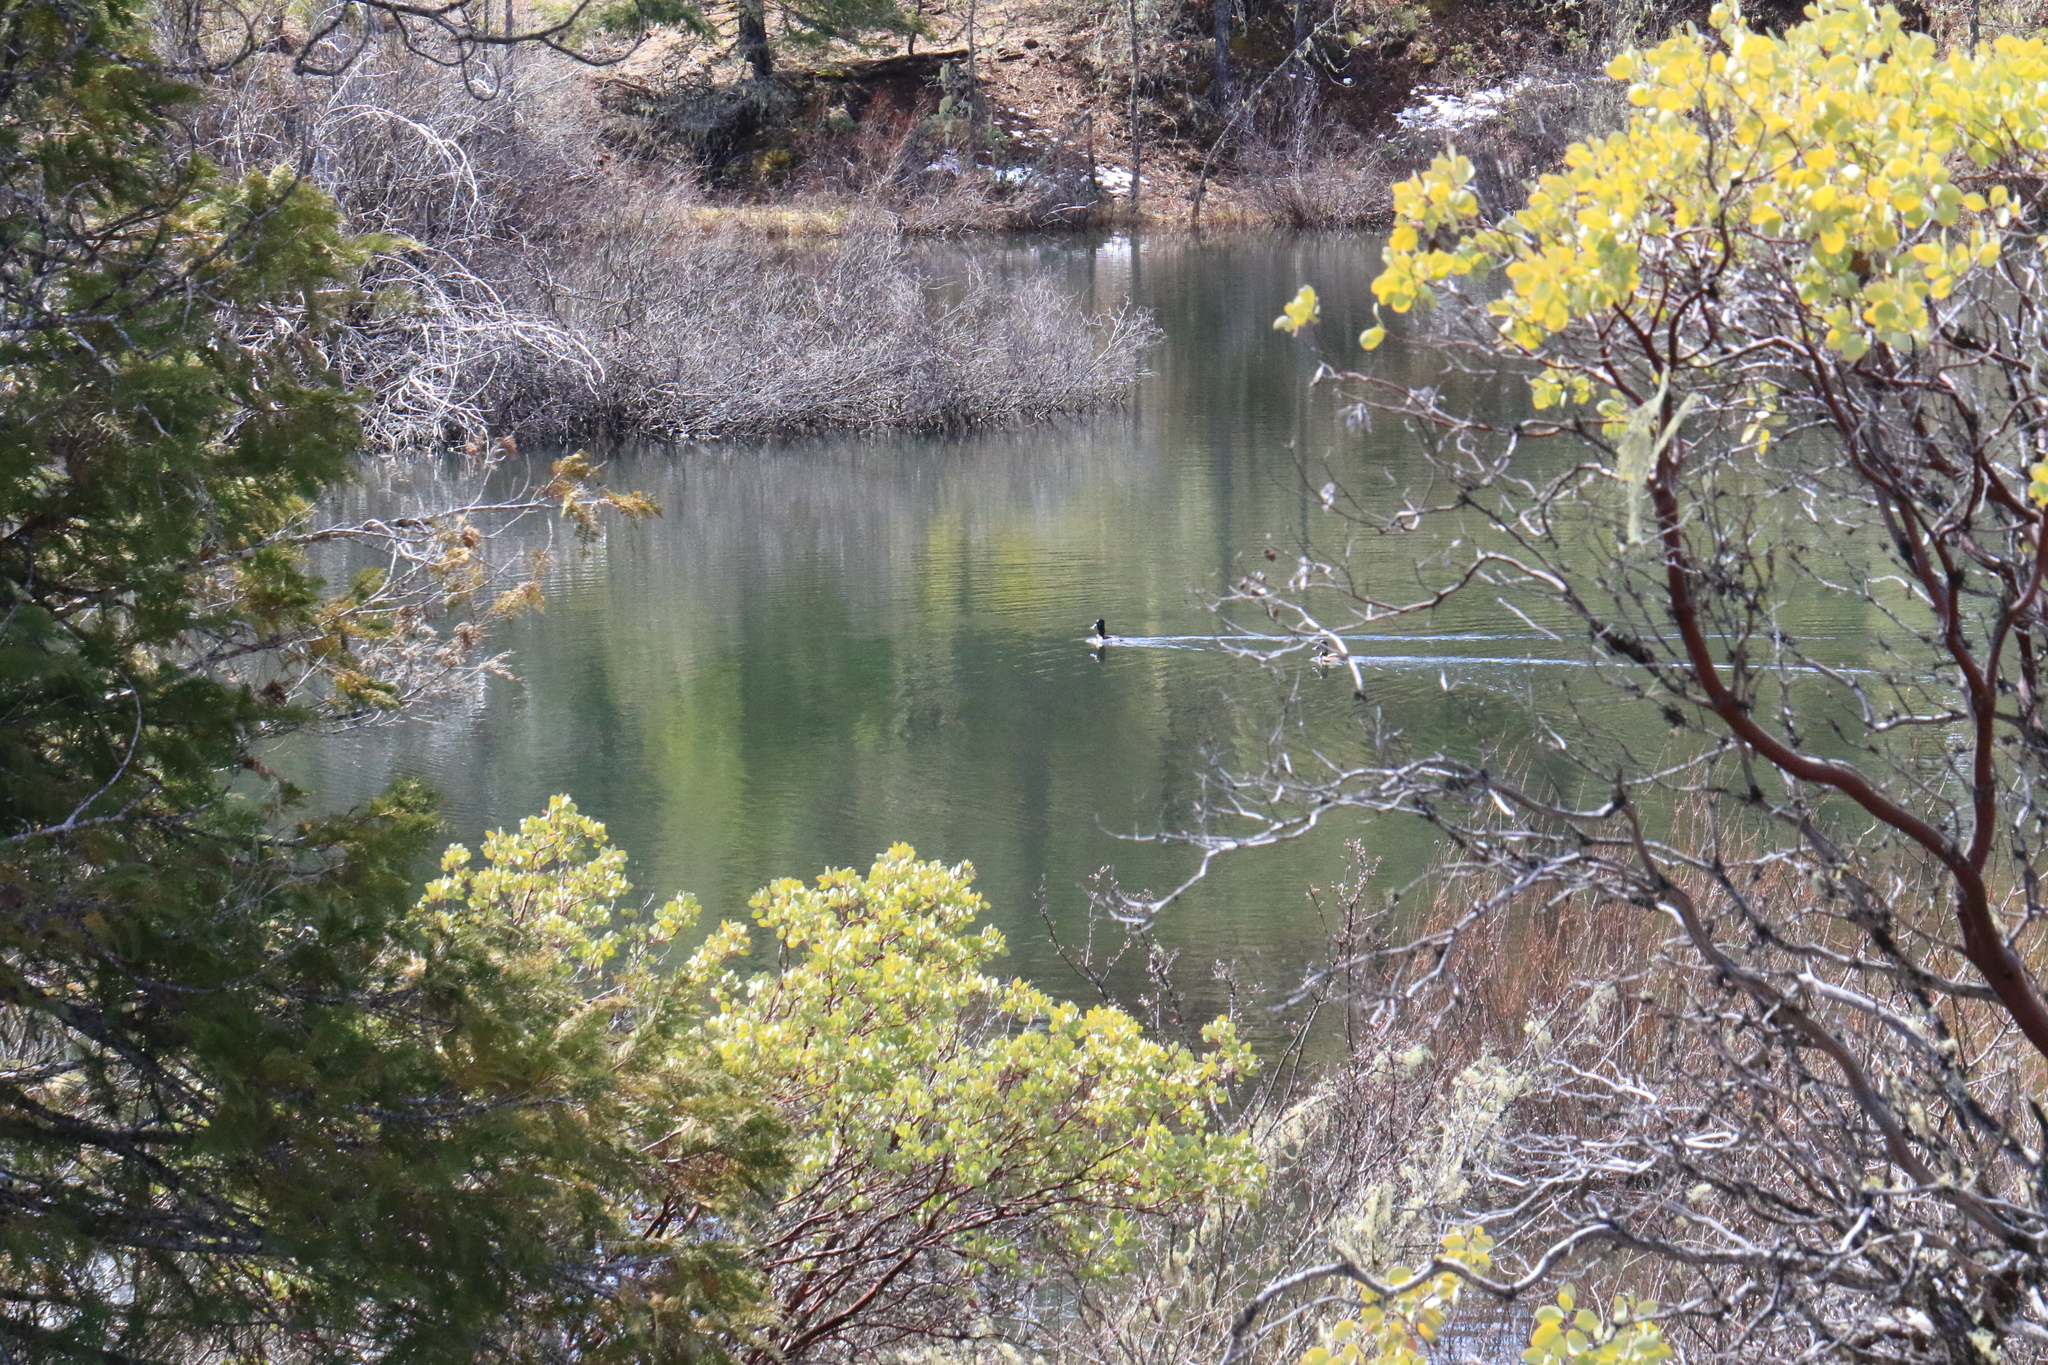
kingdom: Animalia
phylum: Chordata
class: Aves
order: Anseriformes
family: Anatidae
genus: Aythya
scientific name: Aythya collaris
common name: Ring-necked duck
